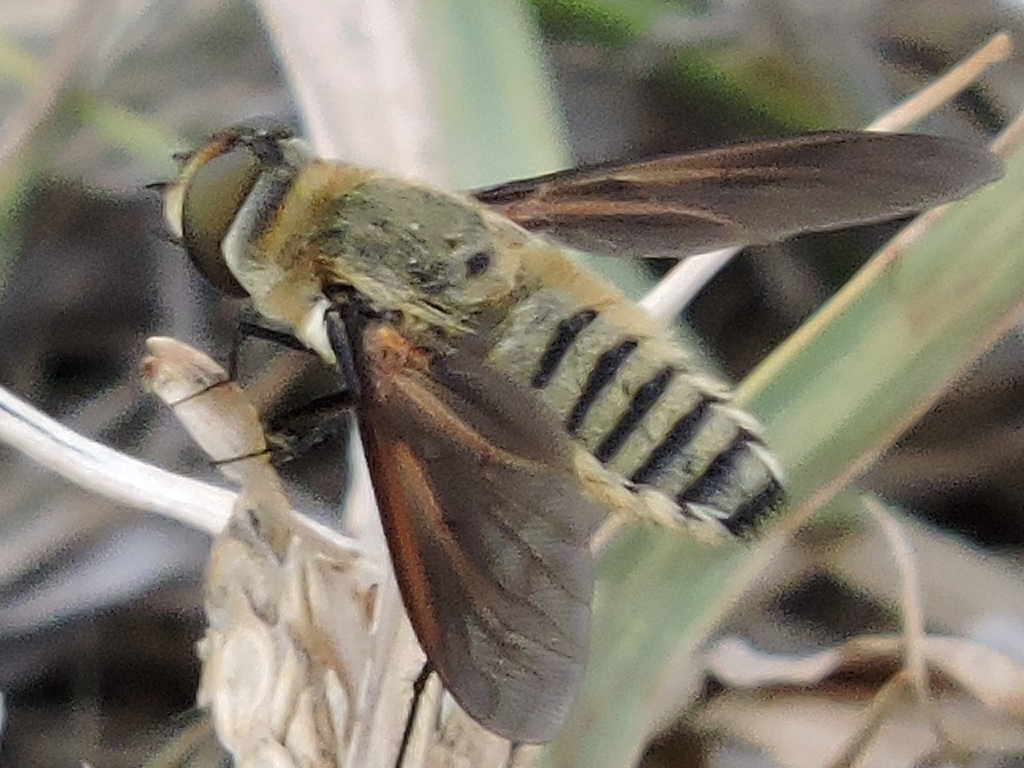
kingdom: Animalia
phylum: Arthropoda
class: Insecta
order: Diptera
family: Bombyliidae
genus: Poecilanthrax
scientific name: Poecilanthrax lucifer
